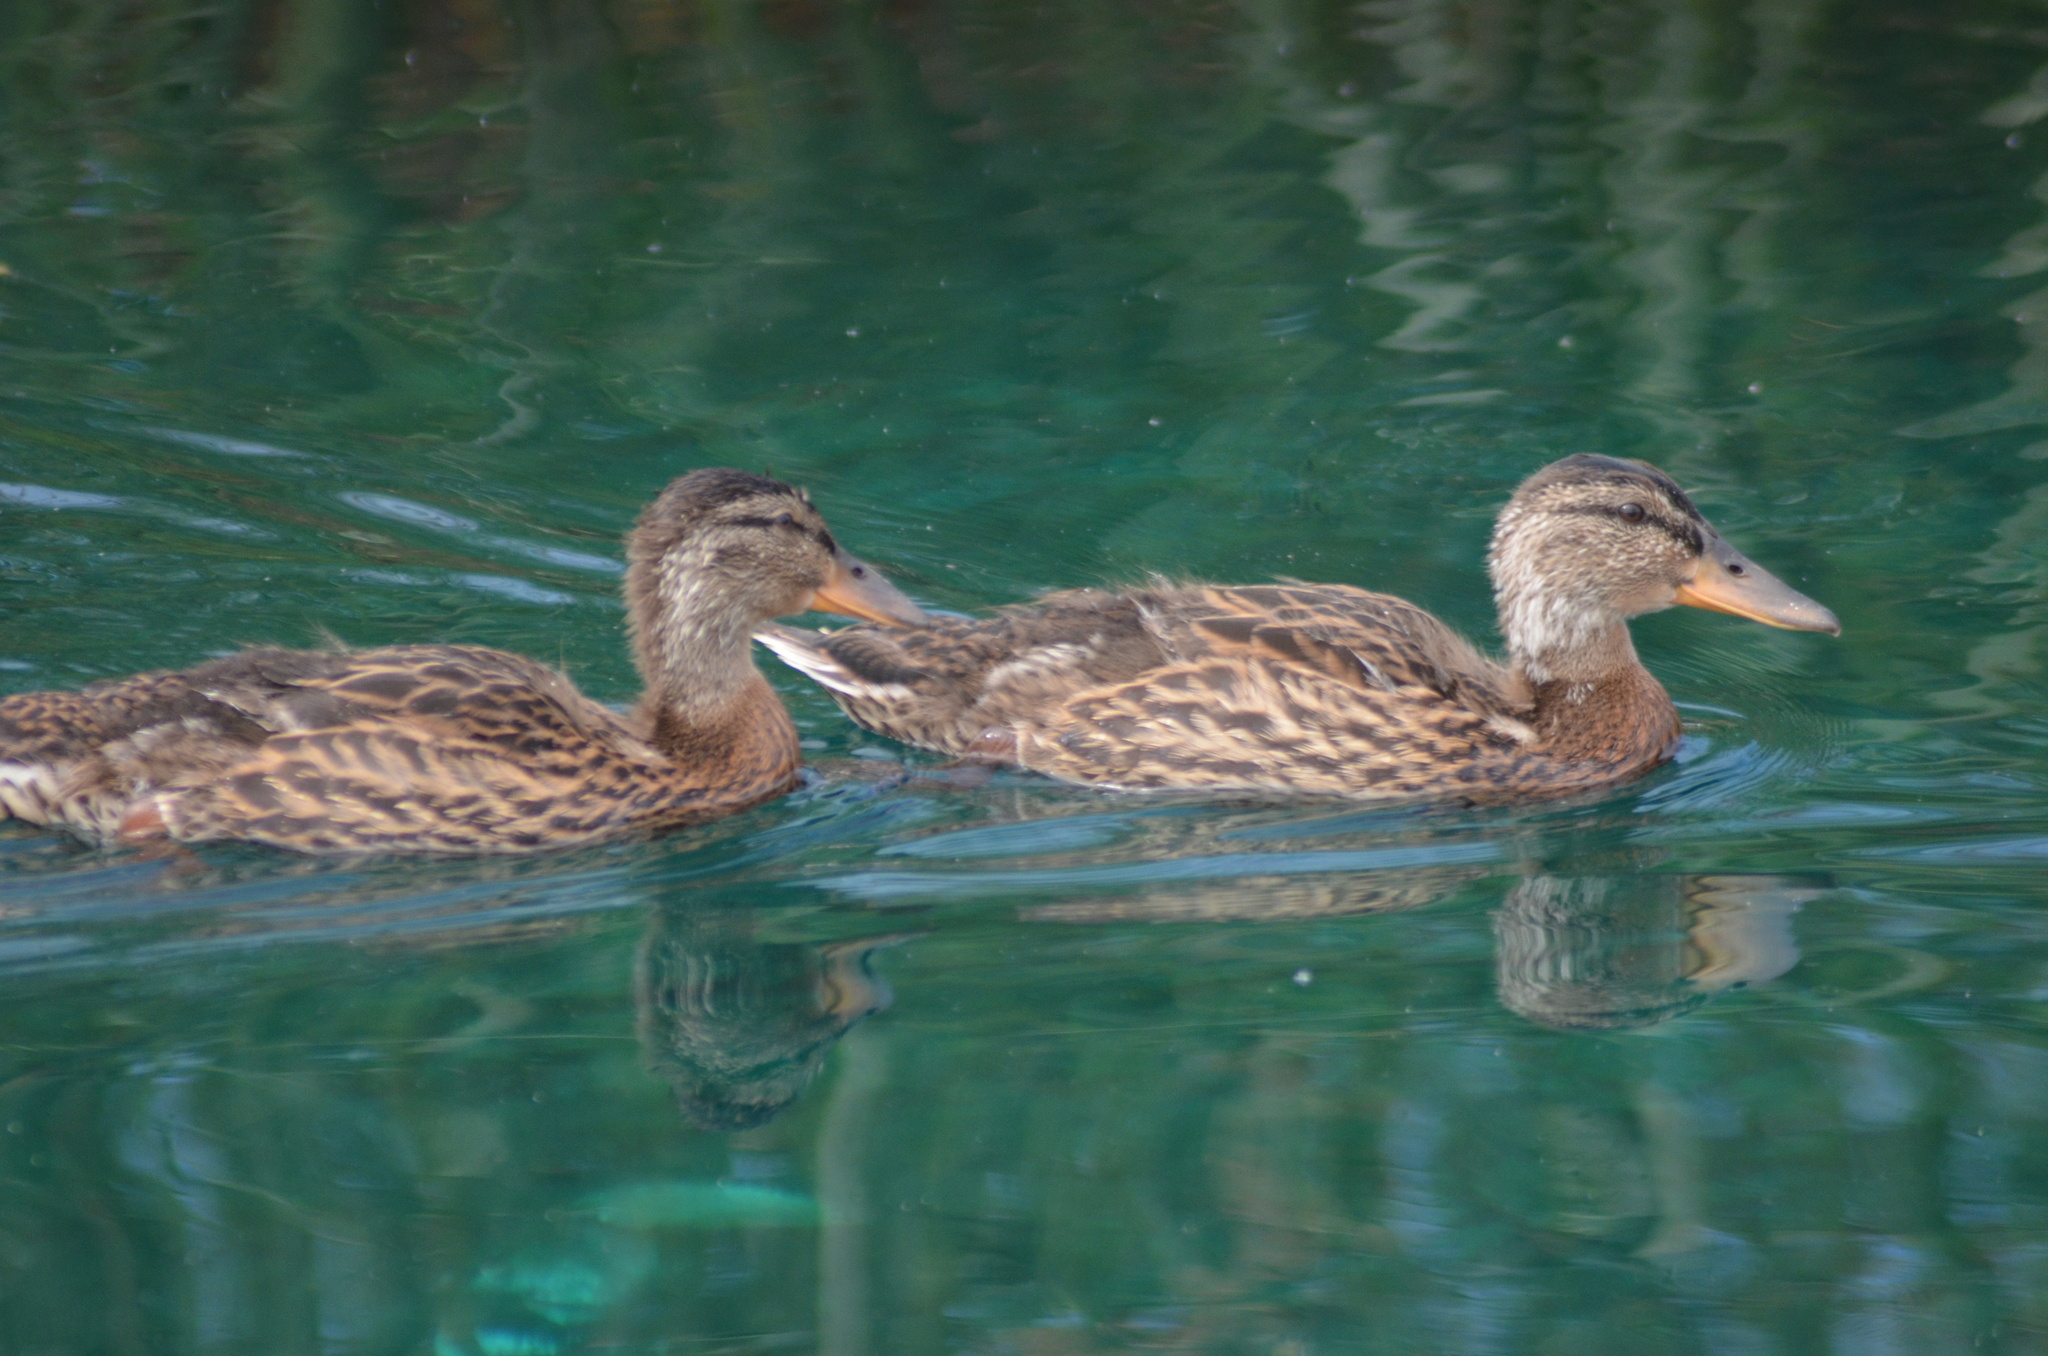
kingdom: Animalia
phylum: Chordata
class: Aves
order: Anseriformes
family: Anatidae
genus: Anas
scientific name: Anas platyrhynchos
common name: Mallard
